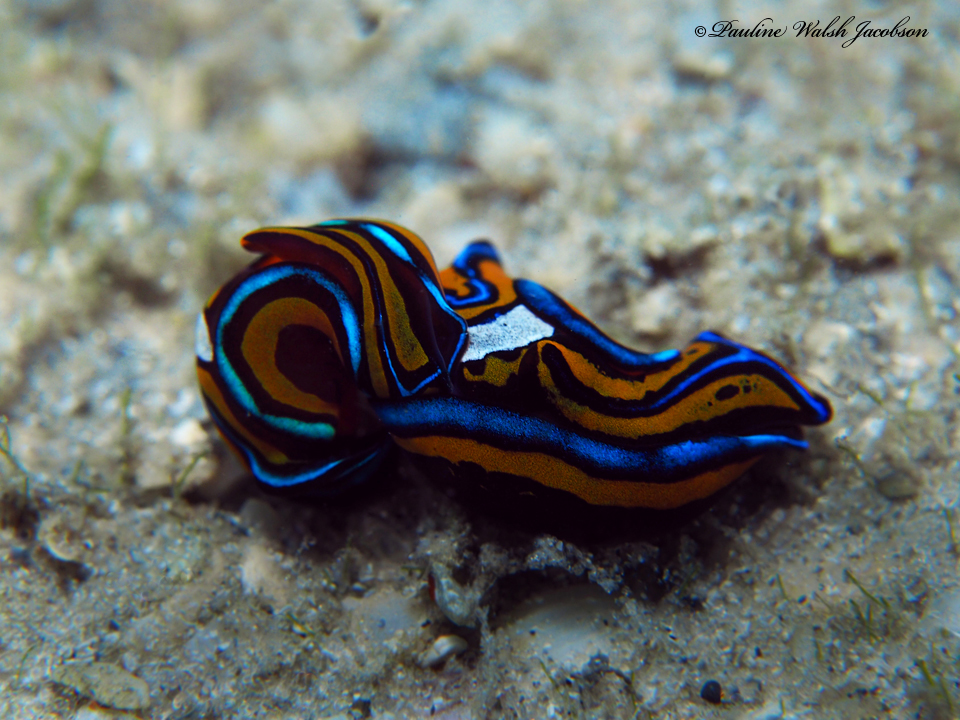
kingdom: Animalia
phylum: Mollusca
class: Gastropoda
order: Cephalaspidea
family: Aglajidae
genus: Chelidonura
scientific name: Chelidonura hirundinina
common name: Leech headshield slug
